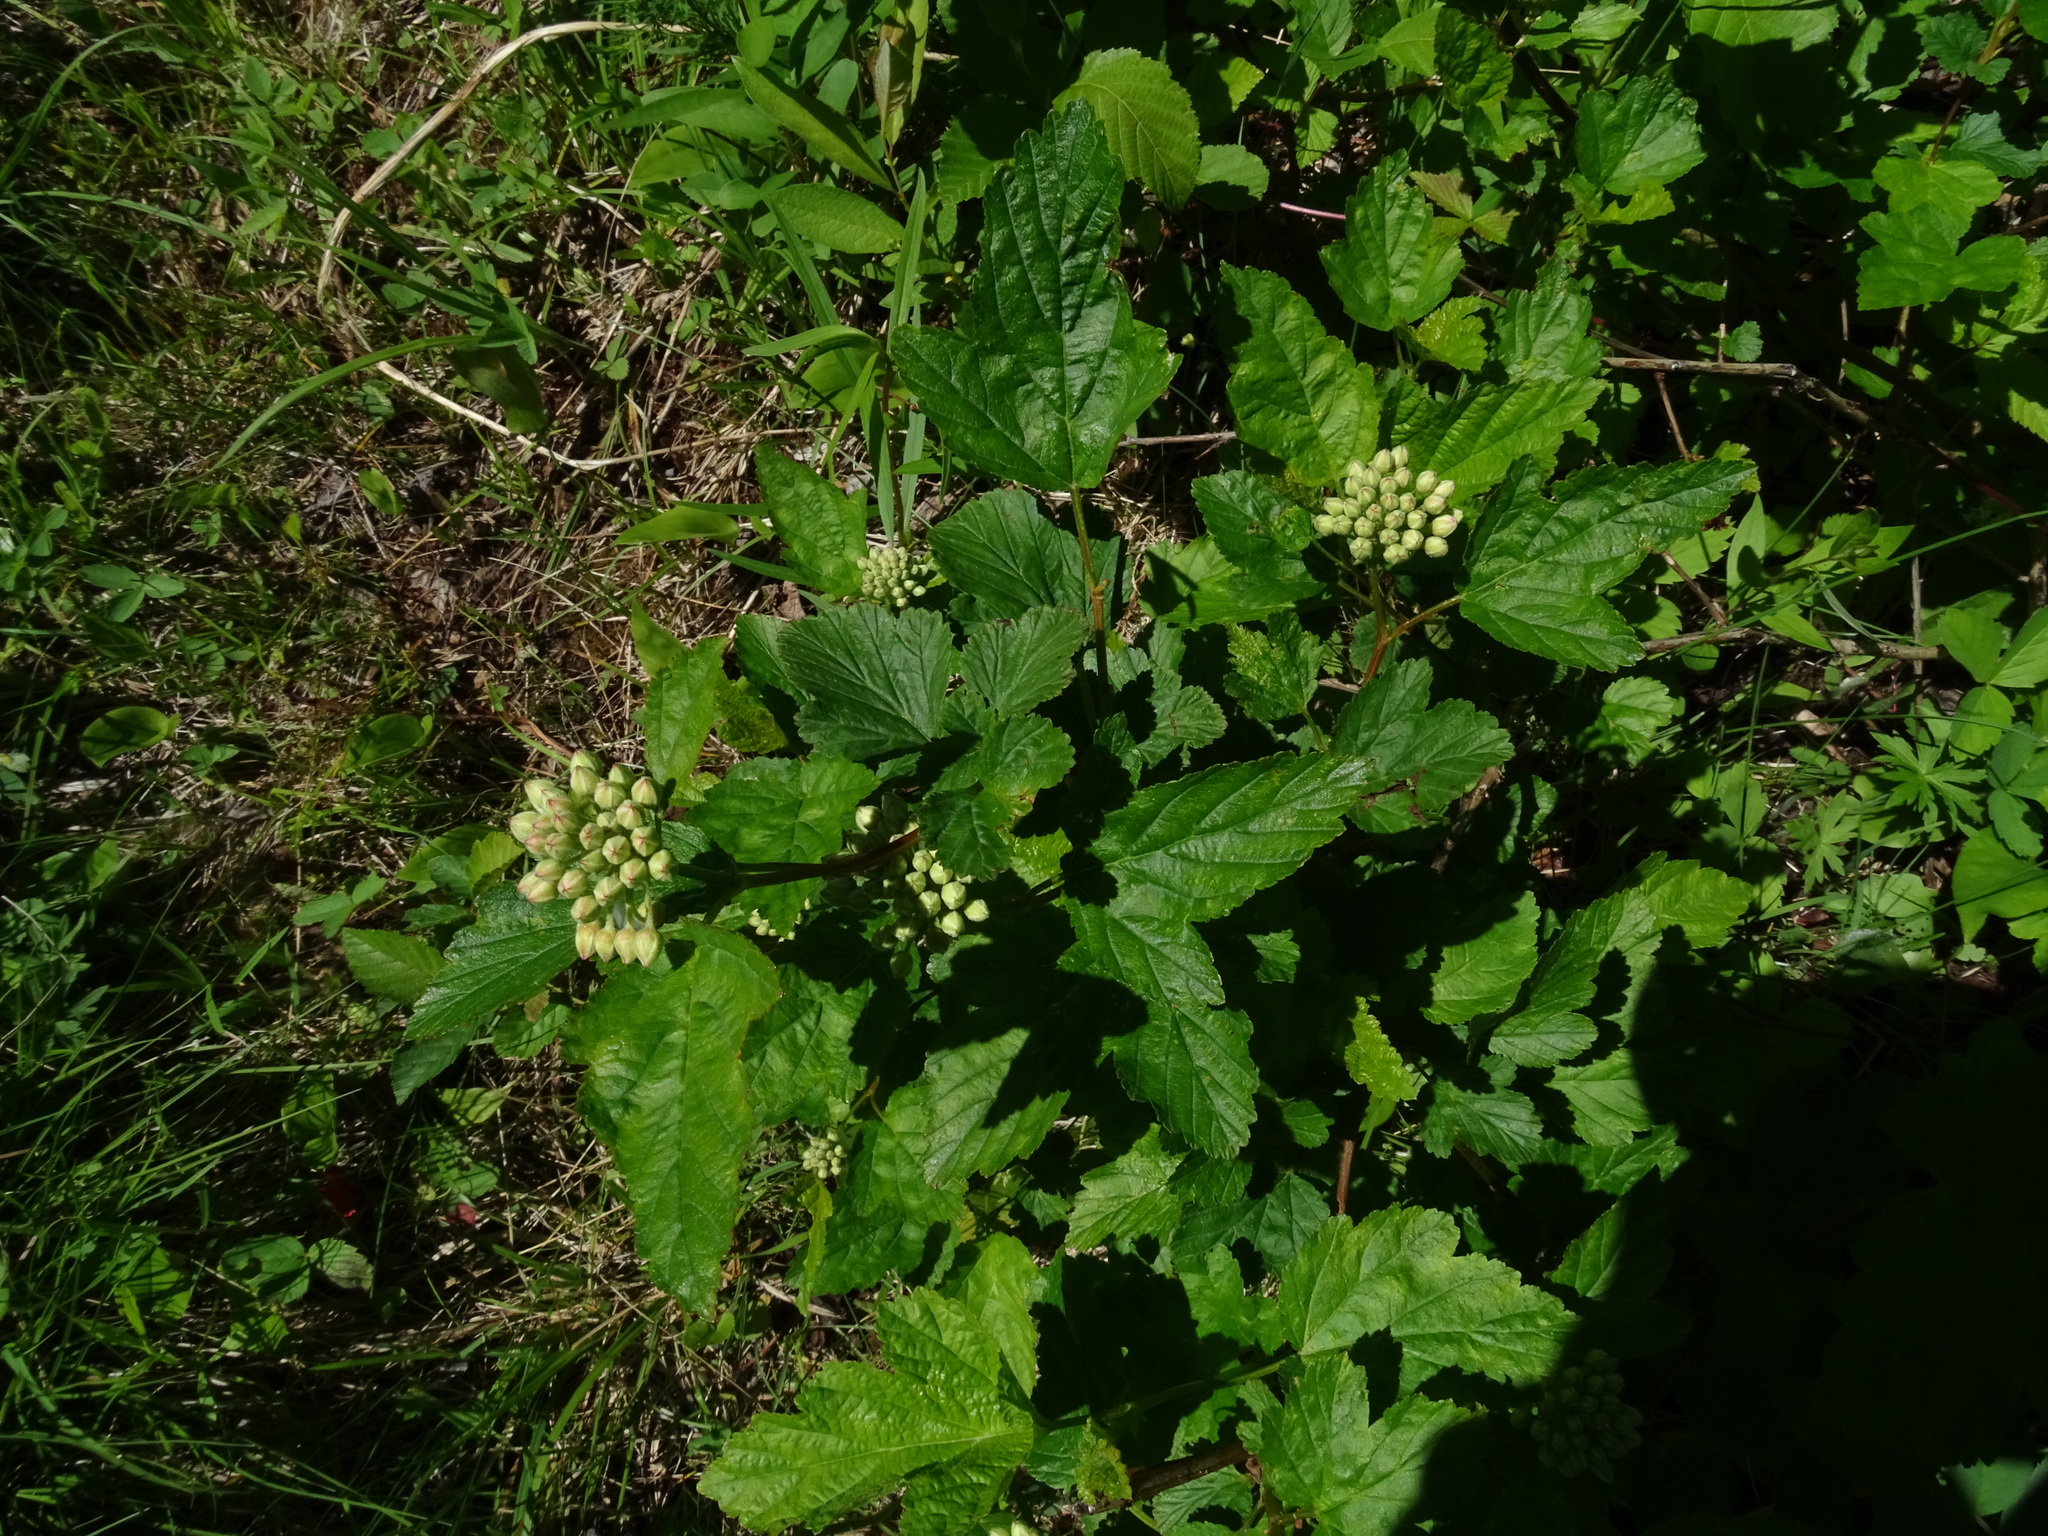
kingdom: Plantae
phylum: Tracheophyta
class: Magnoliopsida
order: Rosales
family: Rosaceae
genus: Physocarpus
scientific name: Physocarpus opulifolius
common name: Ninebark
